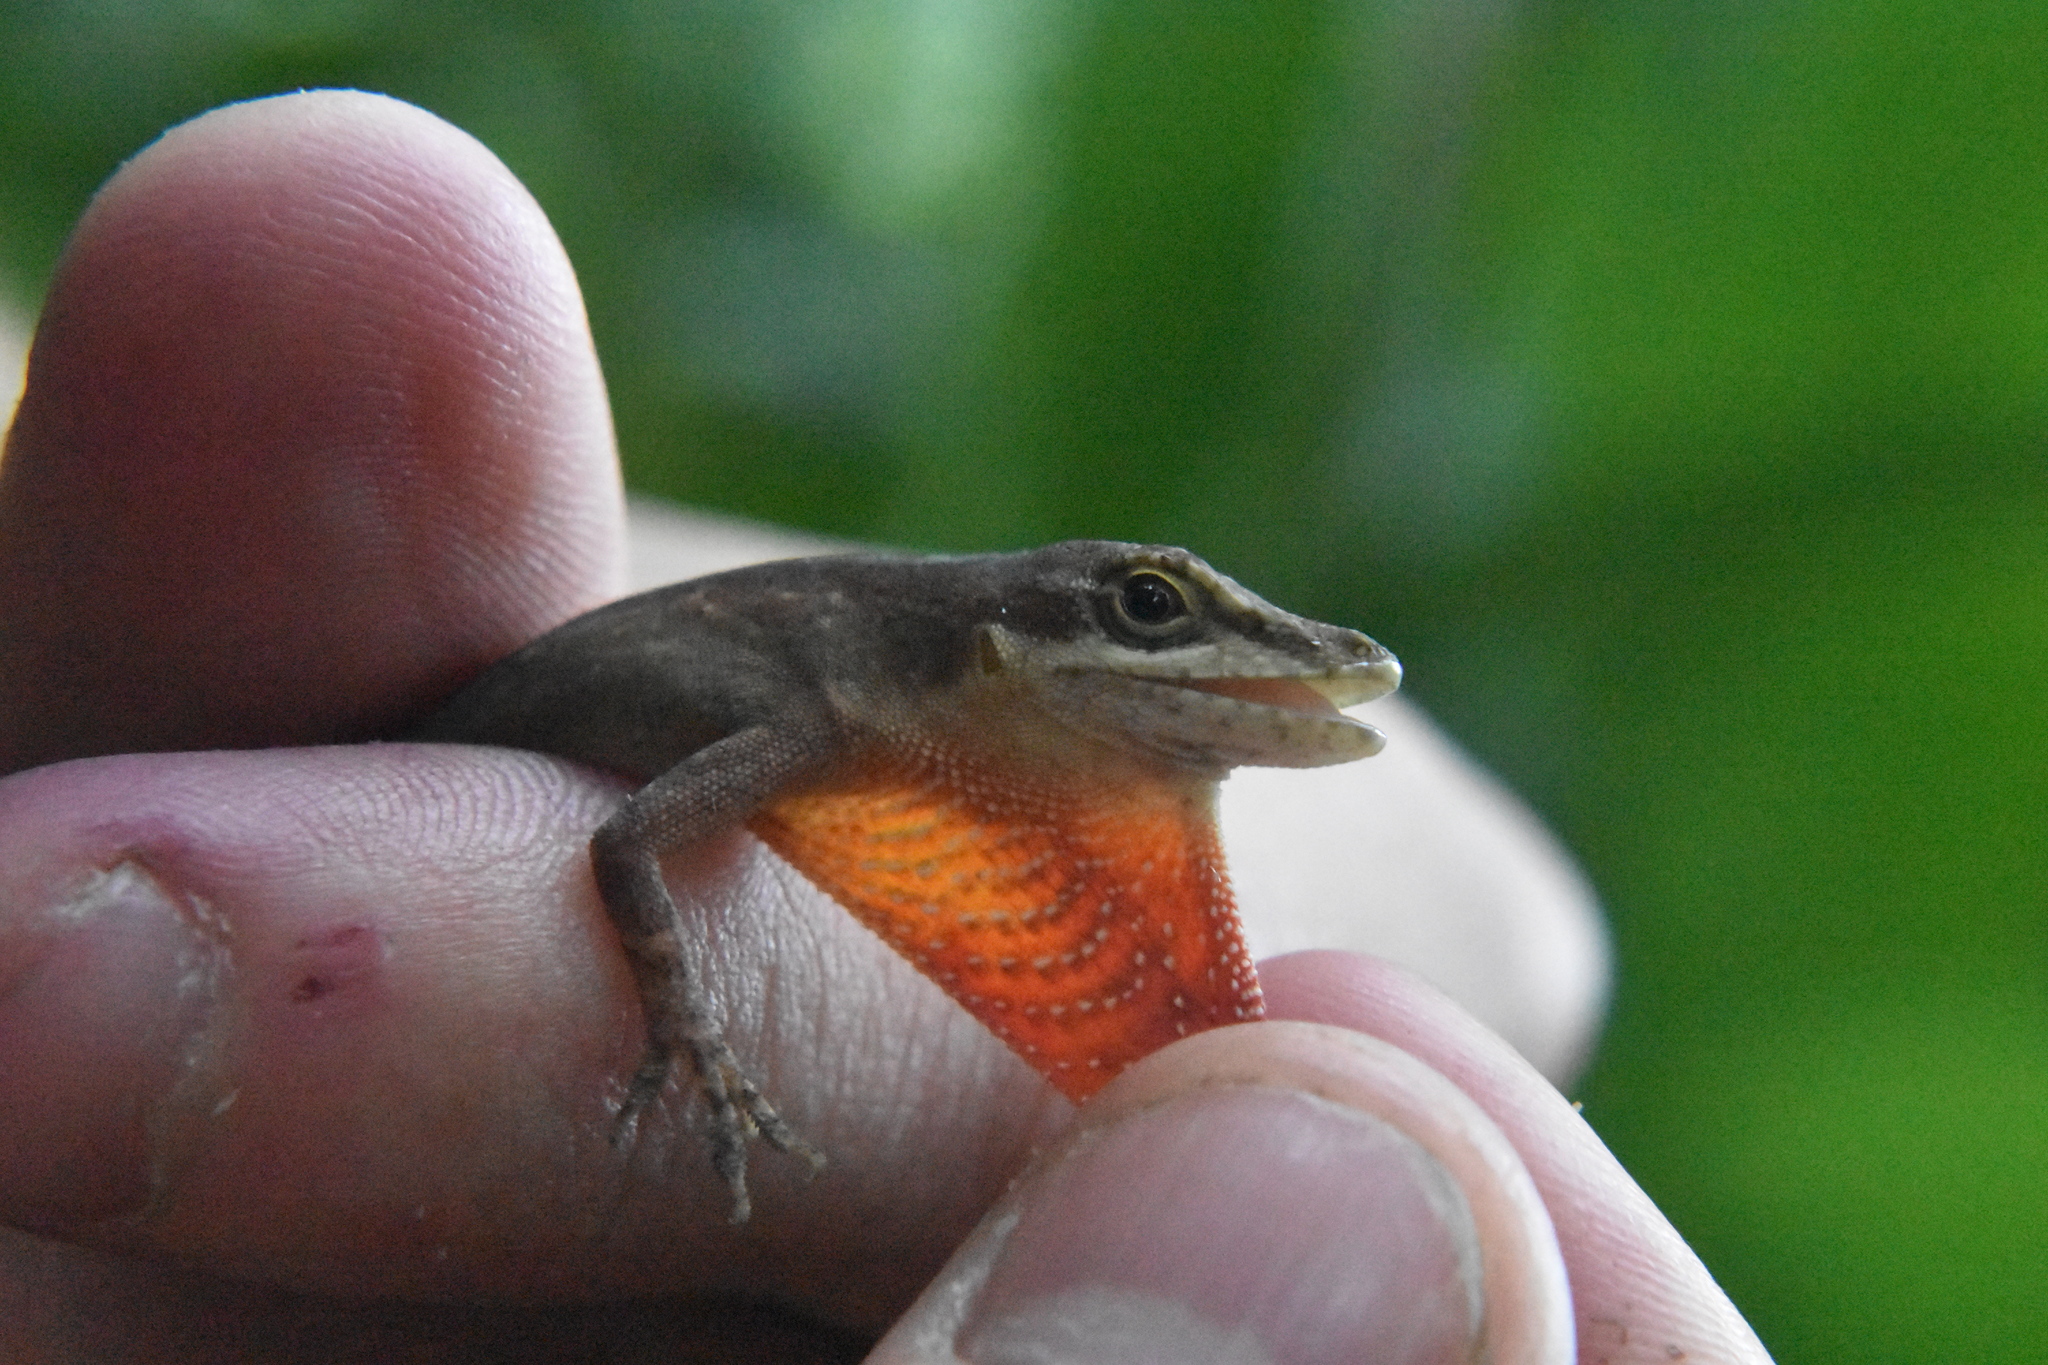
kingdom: Animalia
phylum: Chordata
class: Squamata
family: Dactyloidae
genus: Anolis
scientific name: Anolis mariarum
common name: Blemished anole
